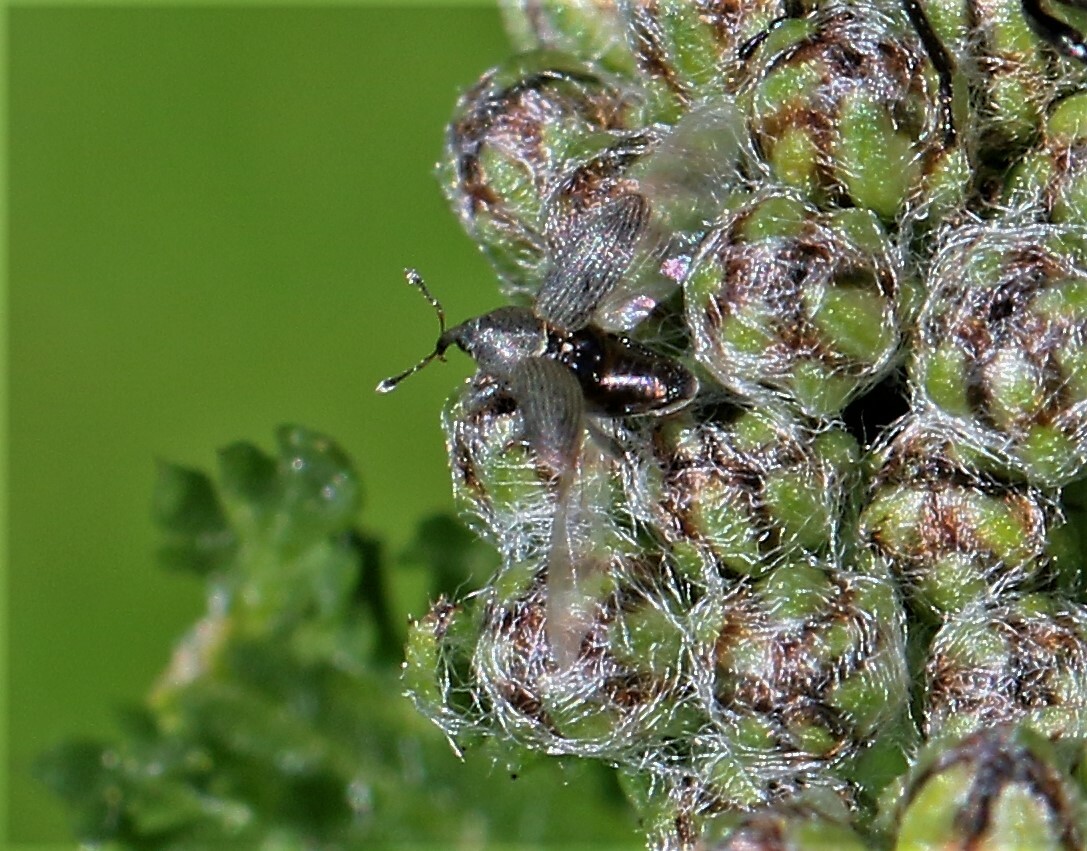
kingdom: Animalia
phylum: Arthropoda
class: Insecta
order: Coleoptera
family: Curculionidae
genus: Tychius
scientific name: Tychius picirostris
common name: Clover seed weevil
